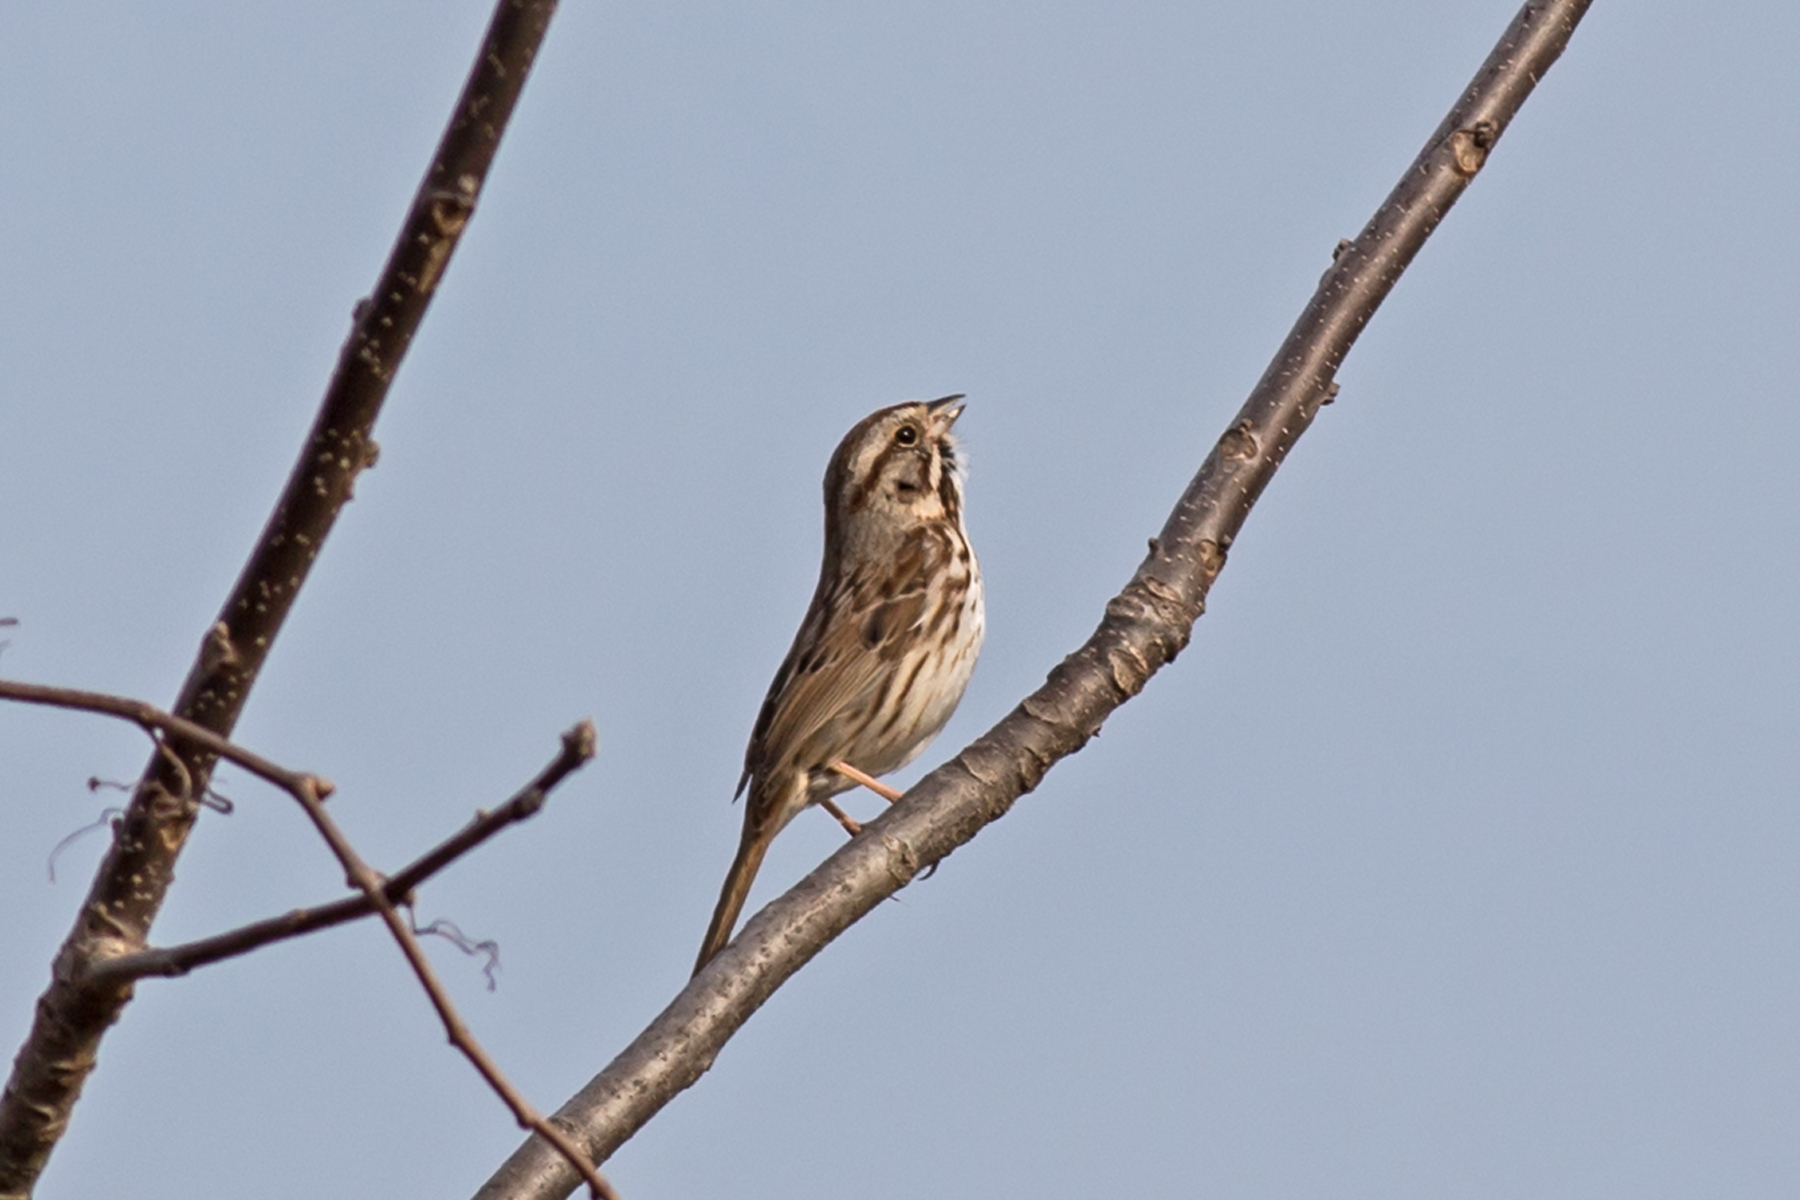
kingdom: Animalia
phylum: Chordata
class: Aves
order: Passeriformes
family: Passerellidae
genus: Melospiza
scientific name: Melospiza melodia
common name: Song sparrow
